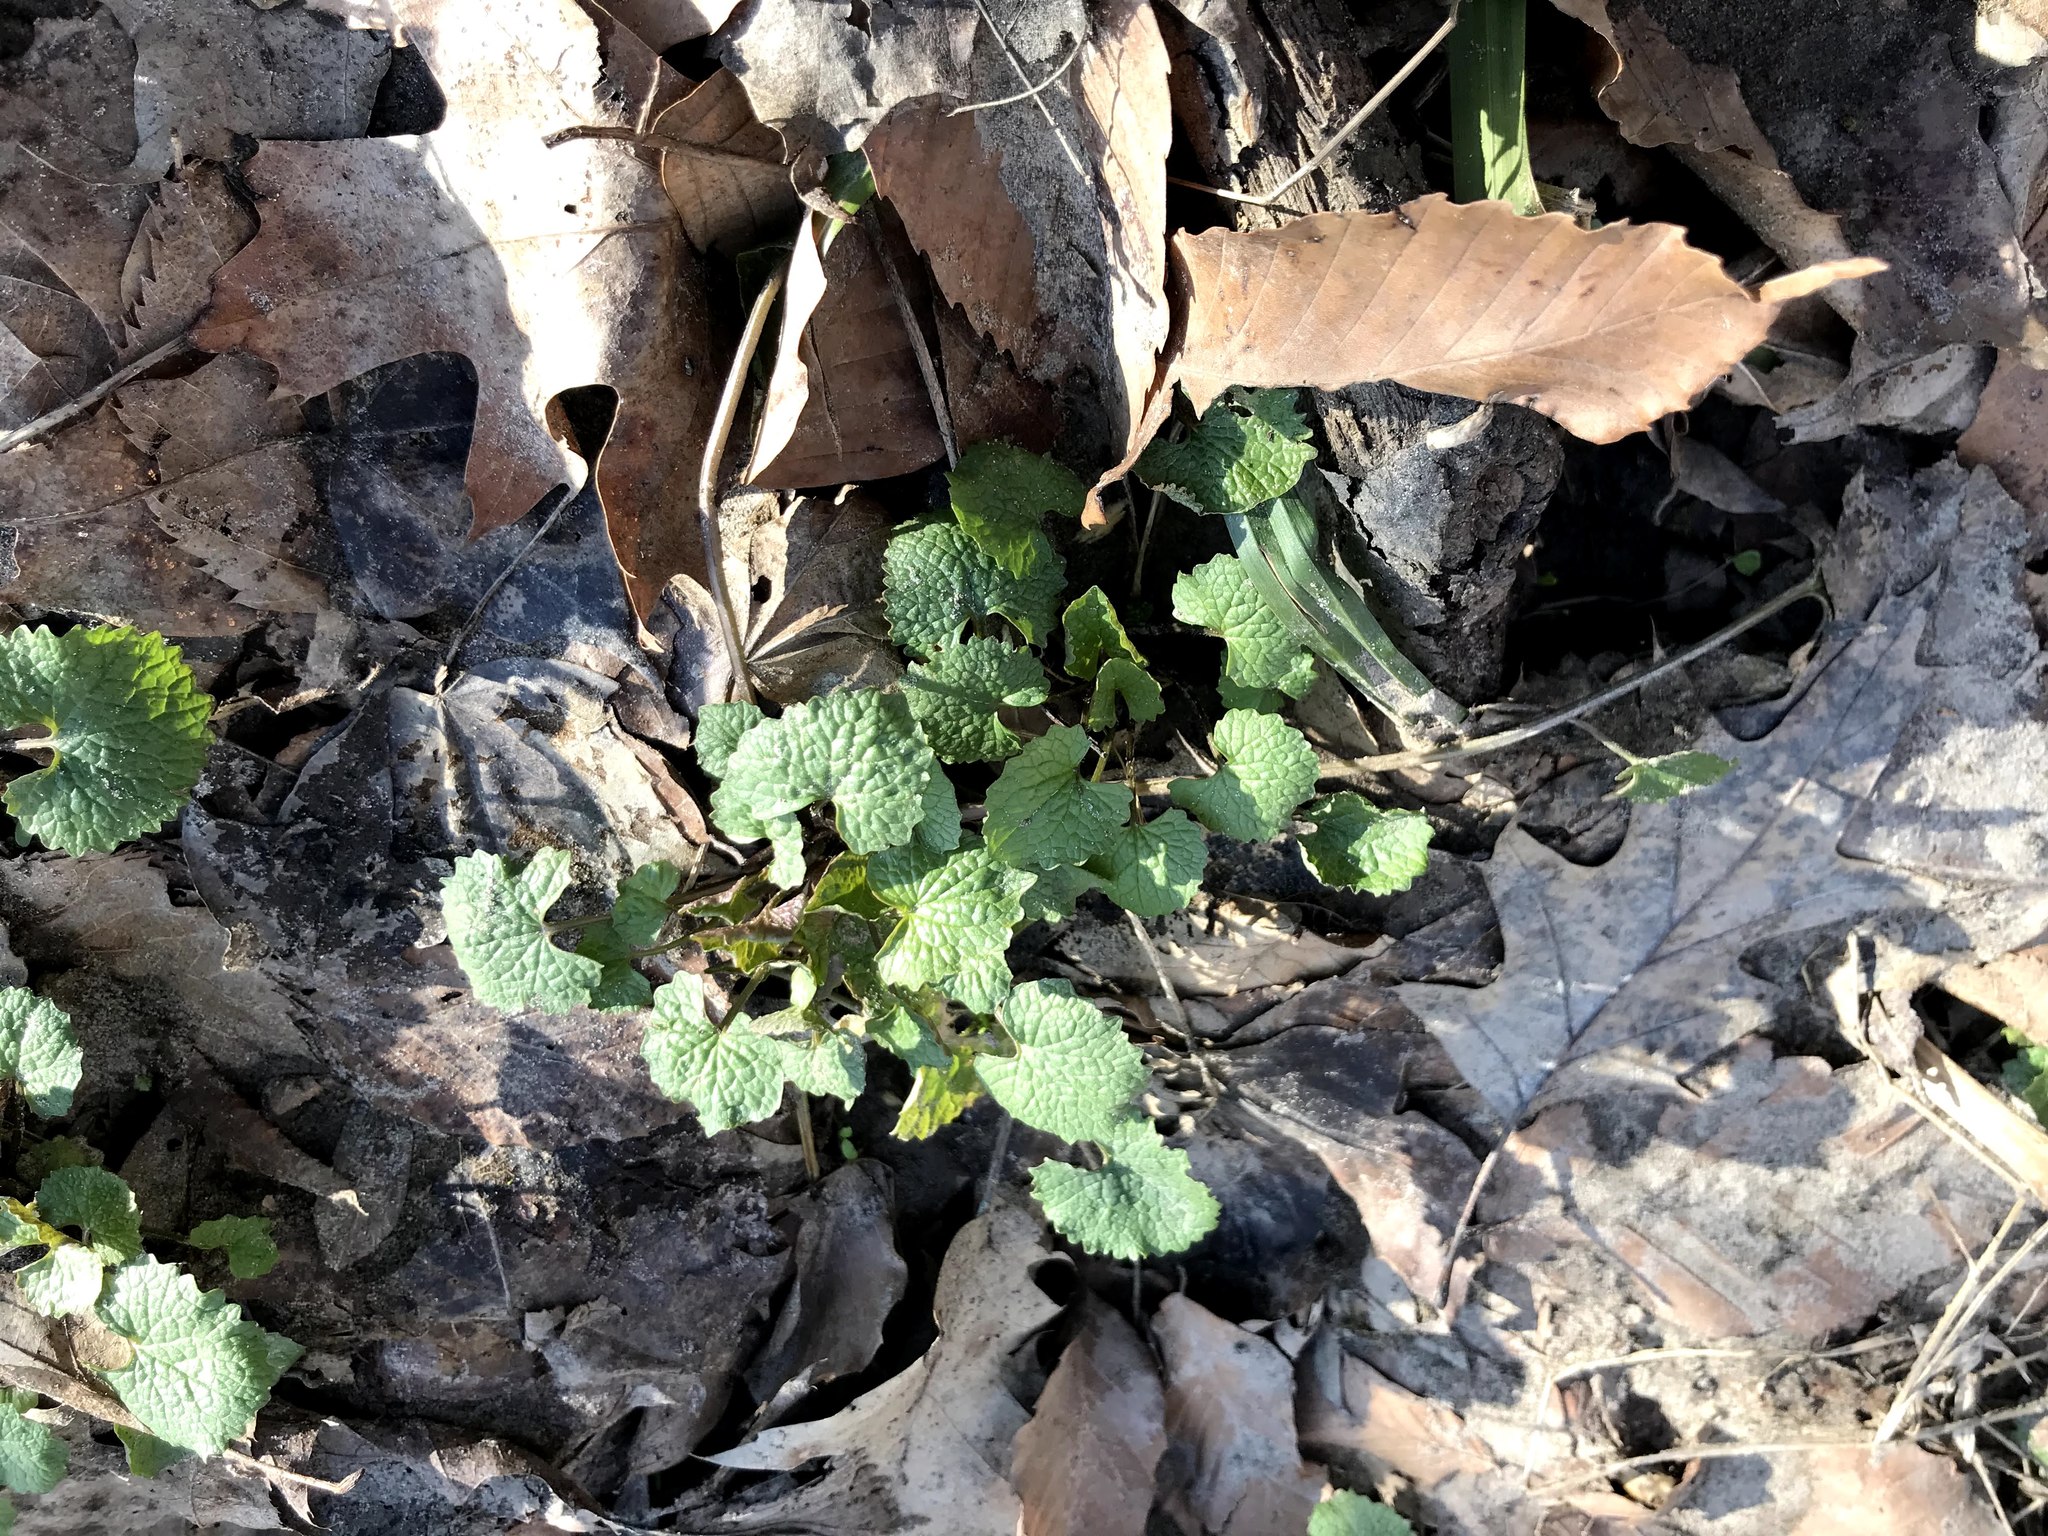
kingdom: Plantae
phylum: Tracheophyta
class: Magnoliopsida
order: Brassicales
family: Brassicaceae
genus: Alliaria
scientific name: Alliaria petiolata
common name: Garlic mustard
